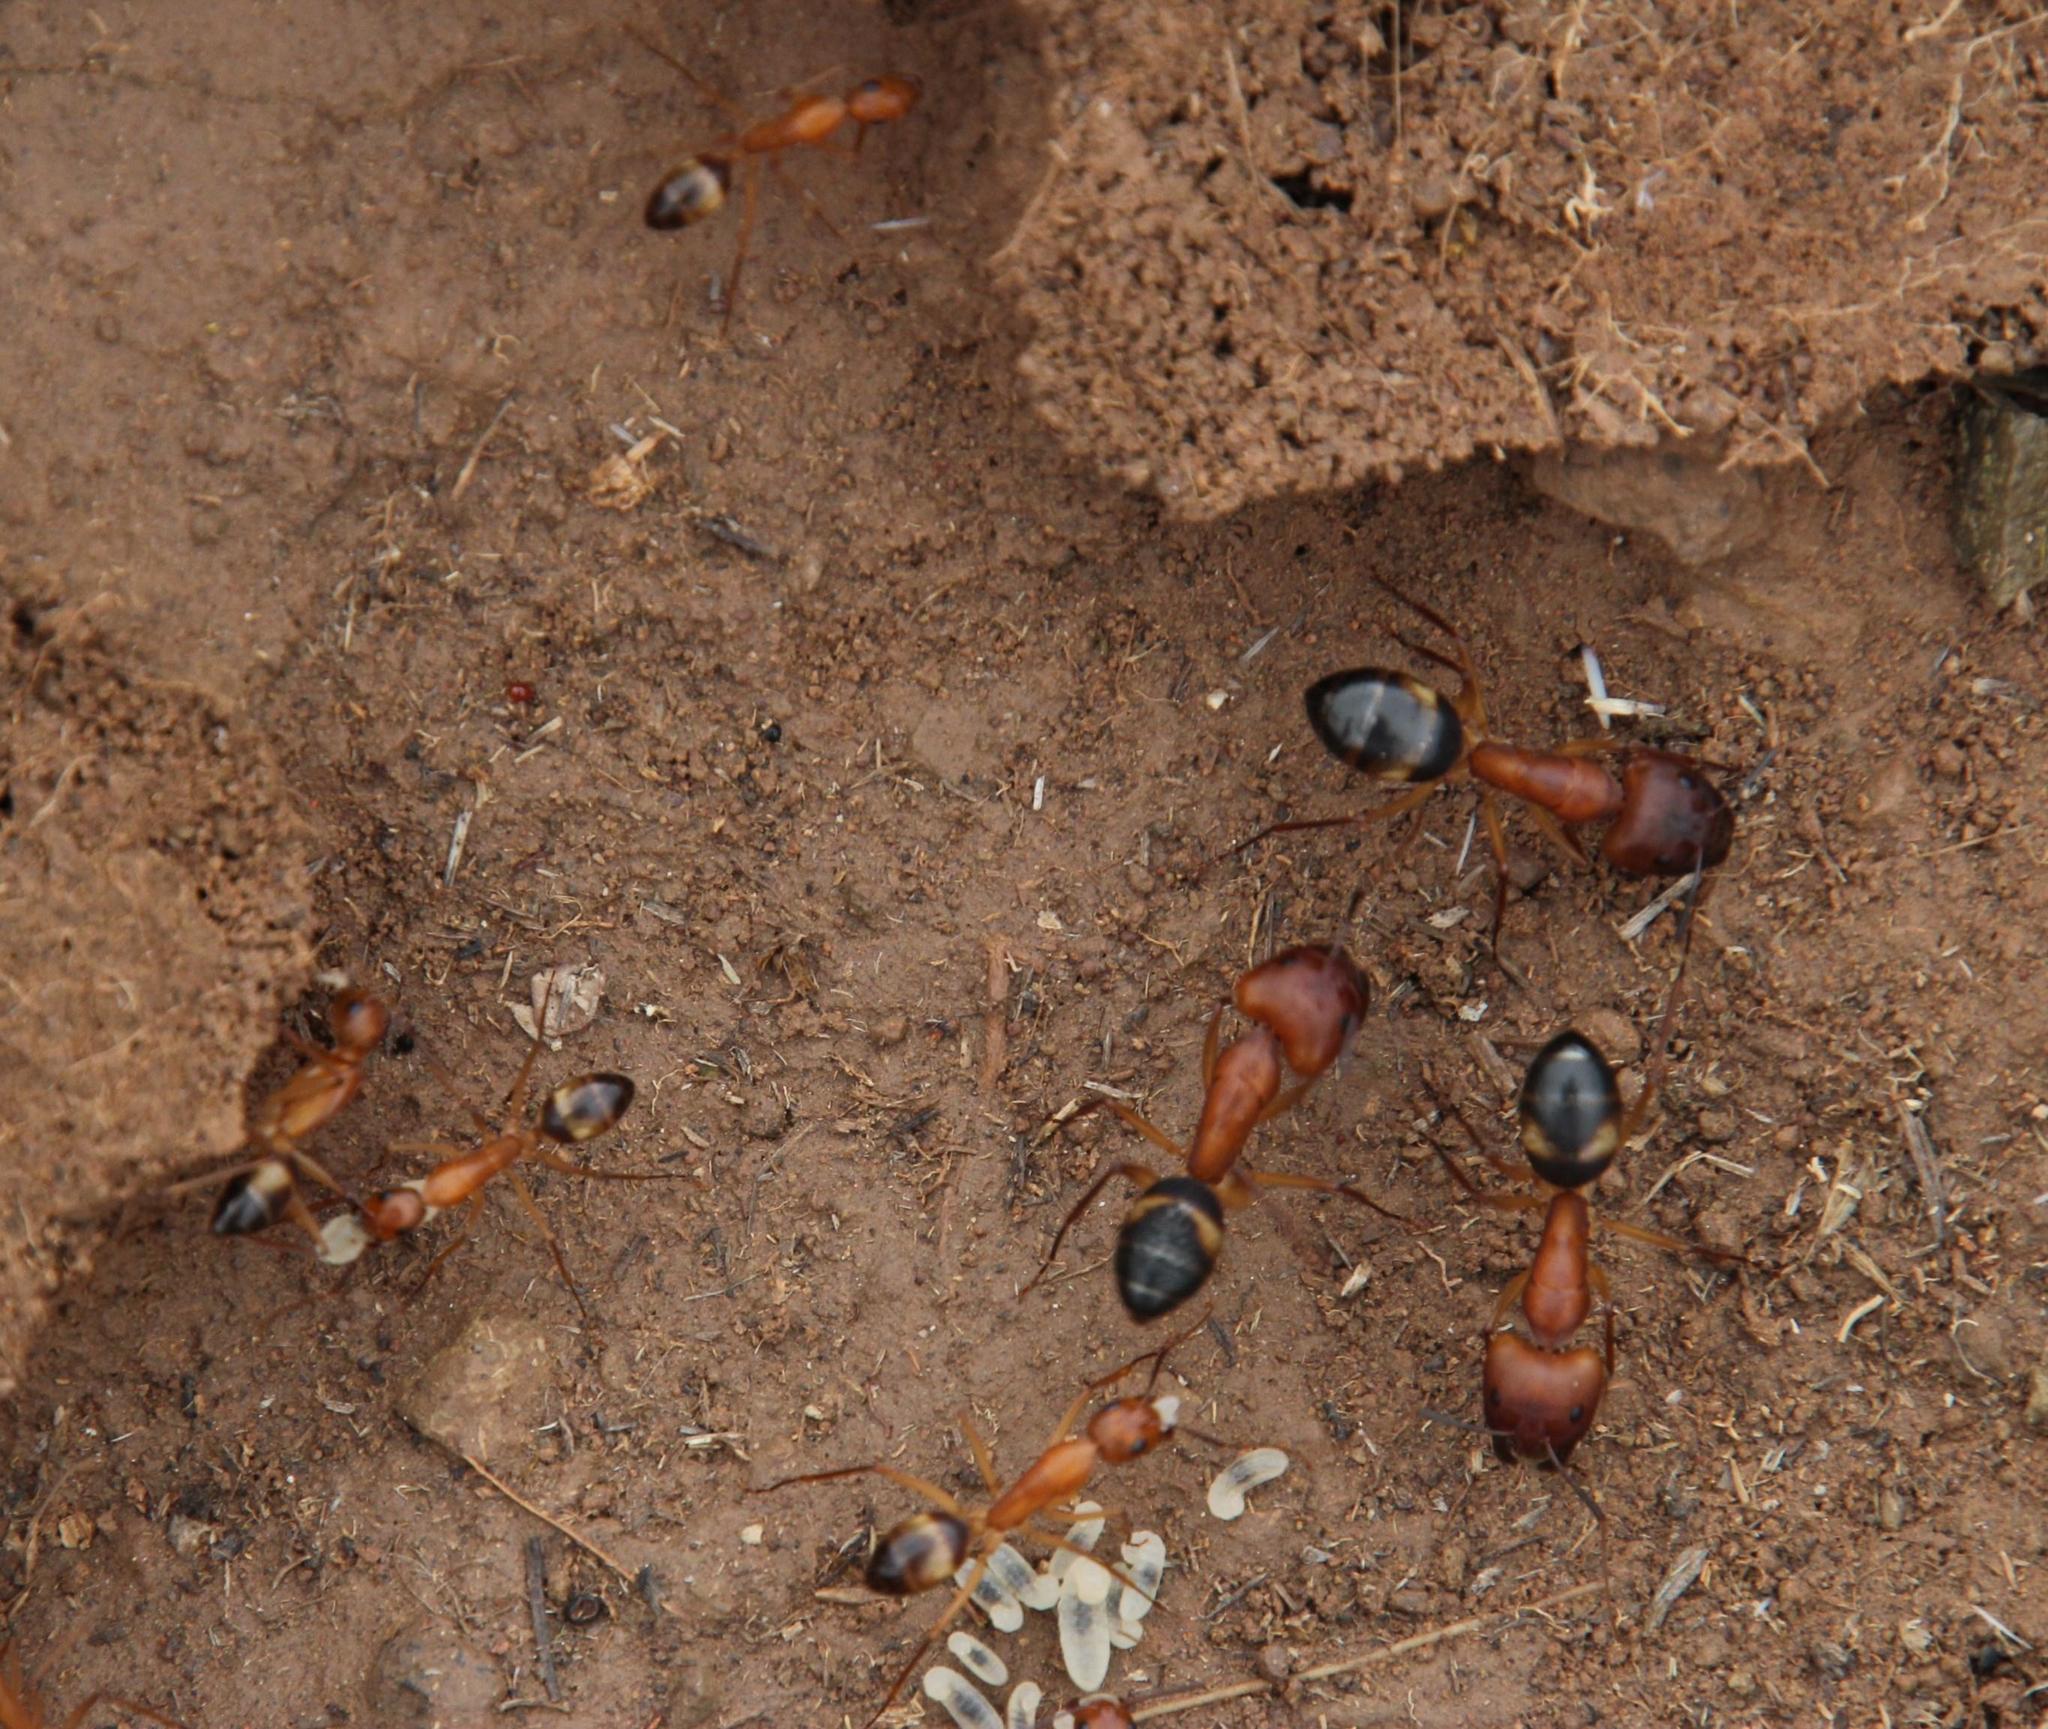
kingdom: Animalia
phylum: Arthropoda
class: Insecta
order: Hymenoptera
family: Formicidae
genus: Camponotus
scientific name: Camponotus maculatus
